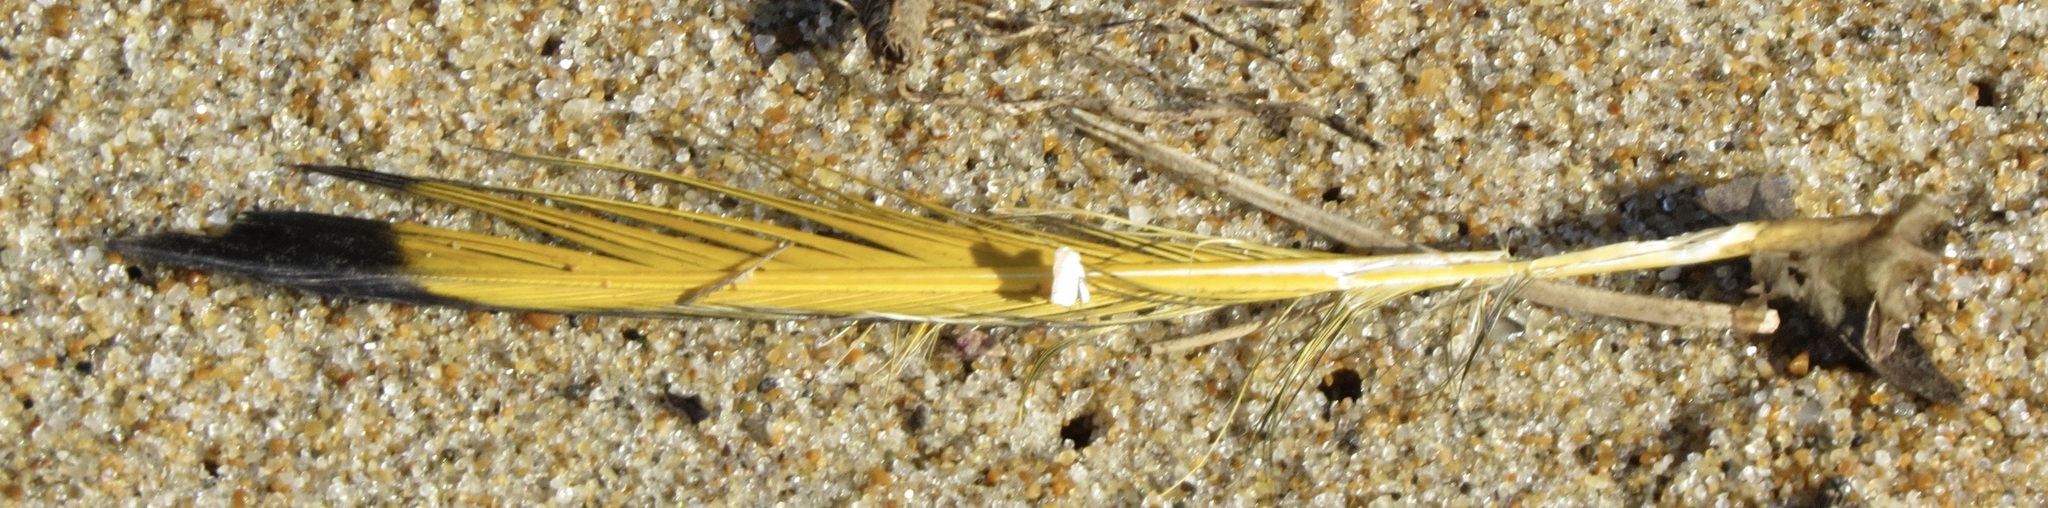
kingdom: Animalia
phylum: Chordata
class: Aves
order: Piciformes
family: Picidae
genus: Colaptes
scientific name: Colaptes auratus
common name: Northern flicker
